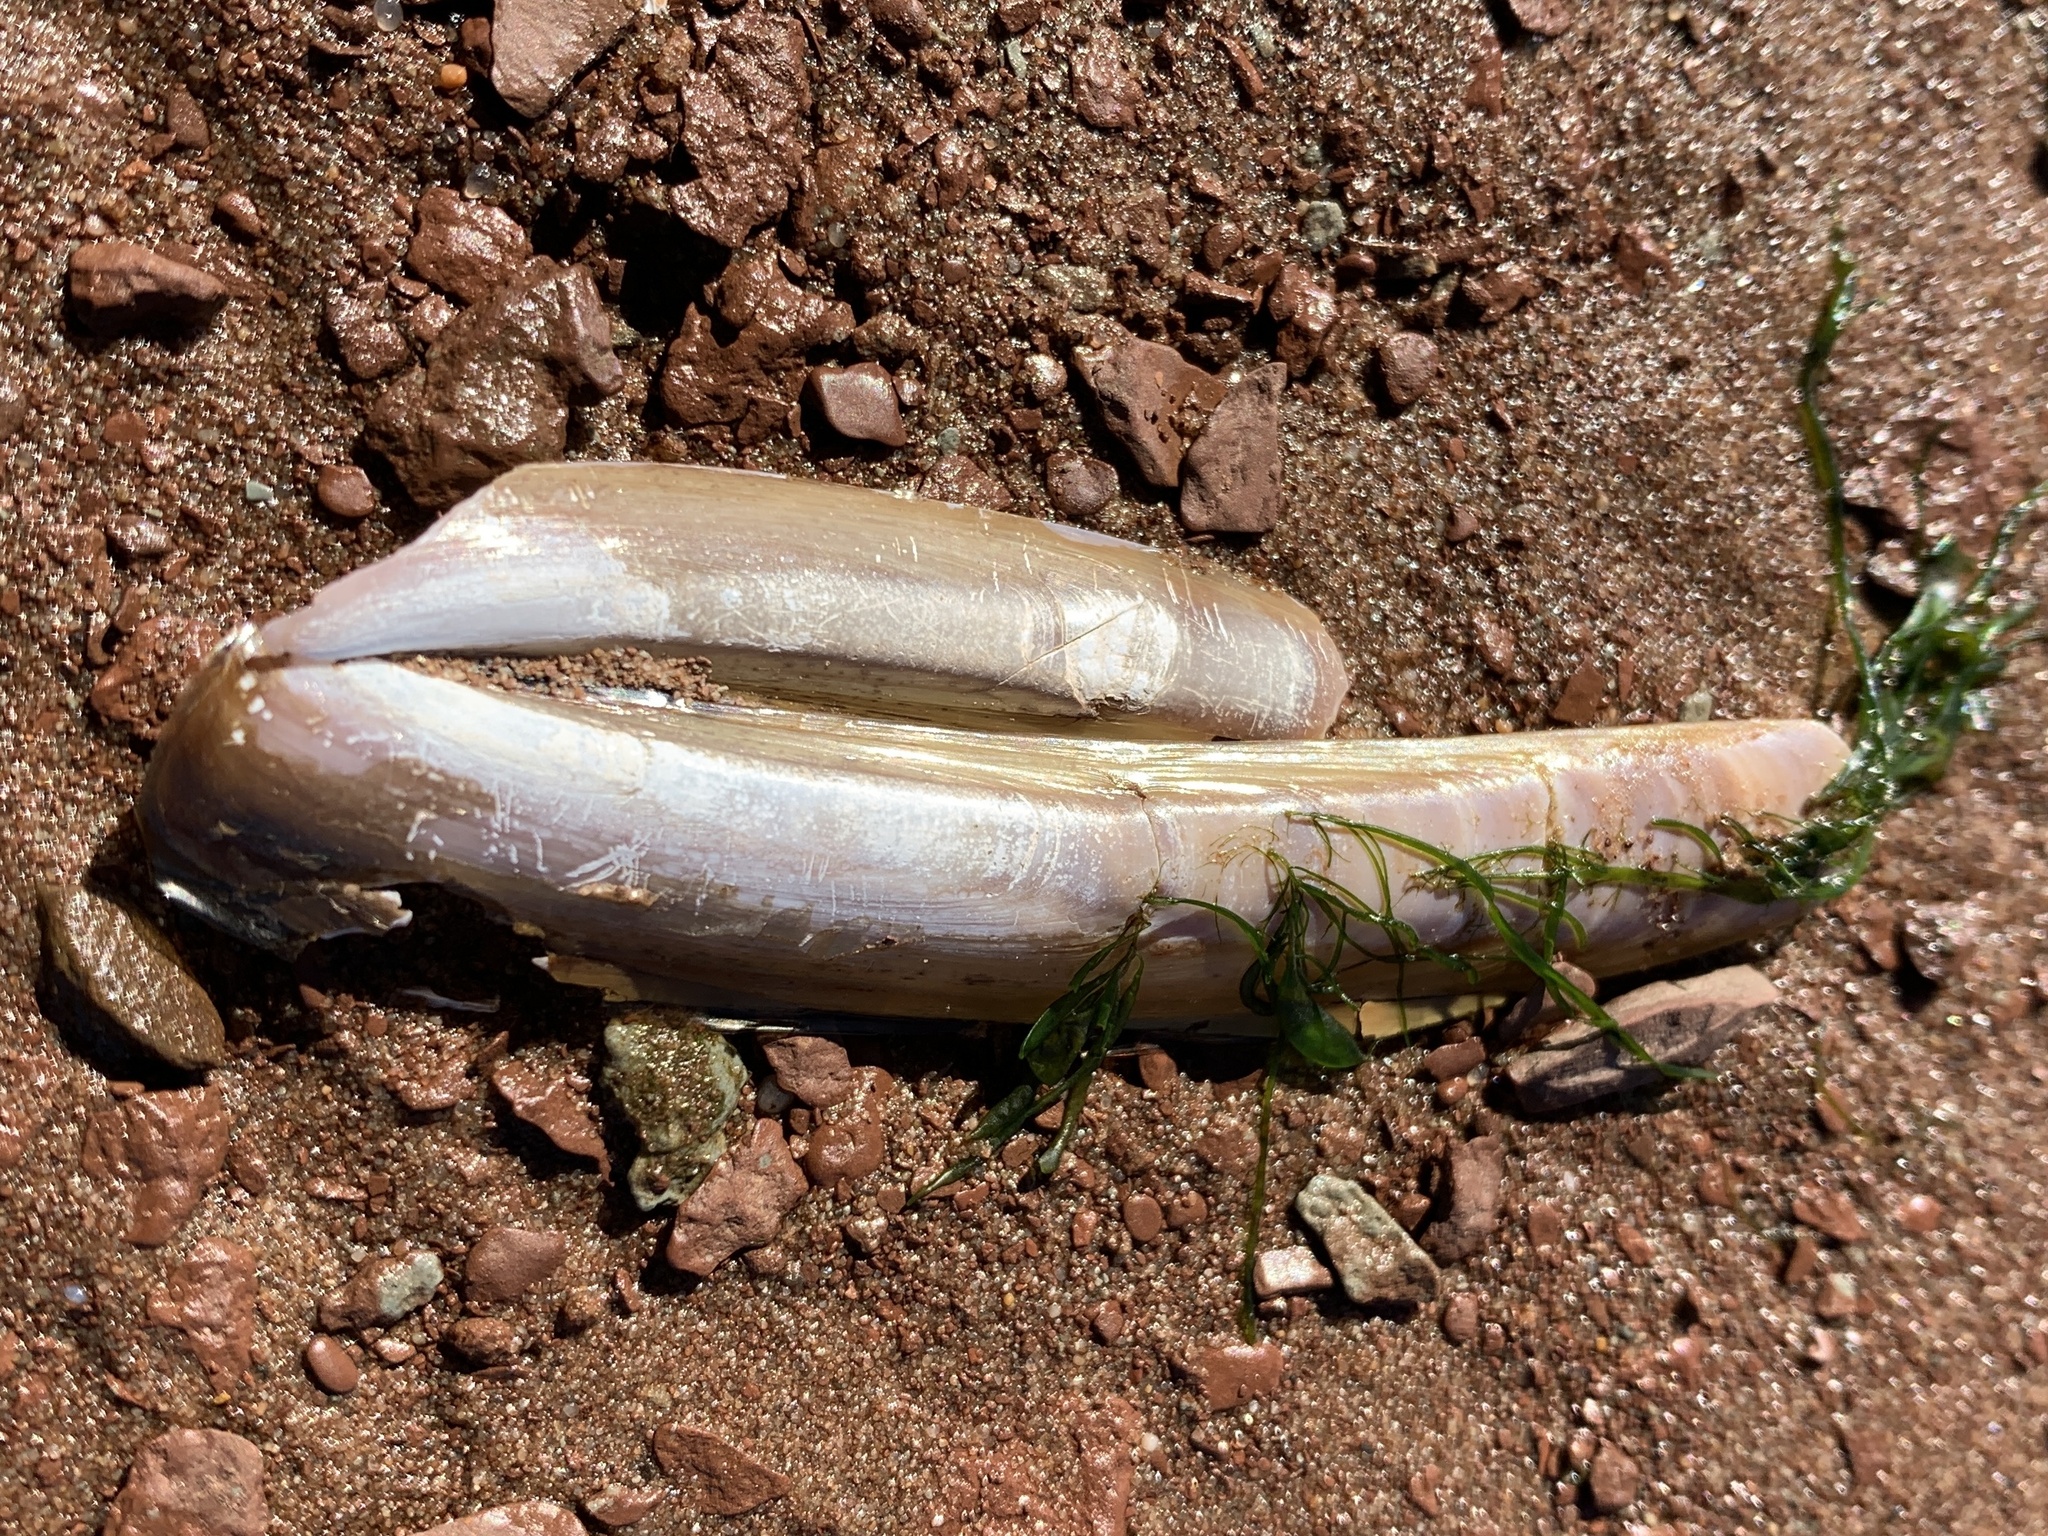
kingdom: Animalia
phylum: Mollusca
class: Bivalvia
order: Adapedonta
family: Pharidae
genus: Ensis
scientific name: Ensis leei
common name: American jack knife clam
